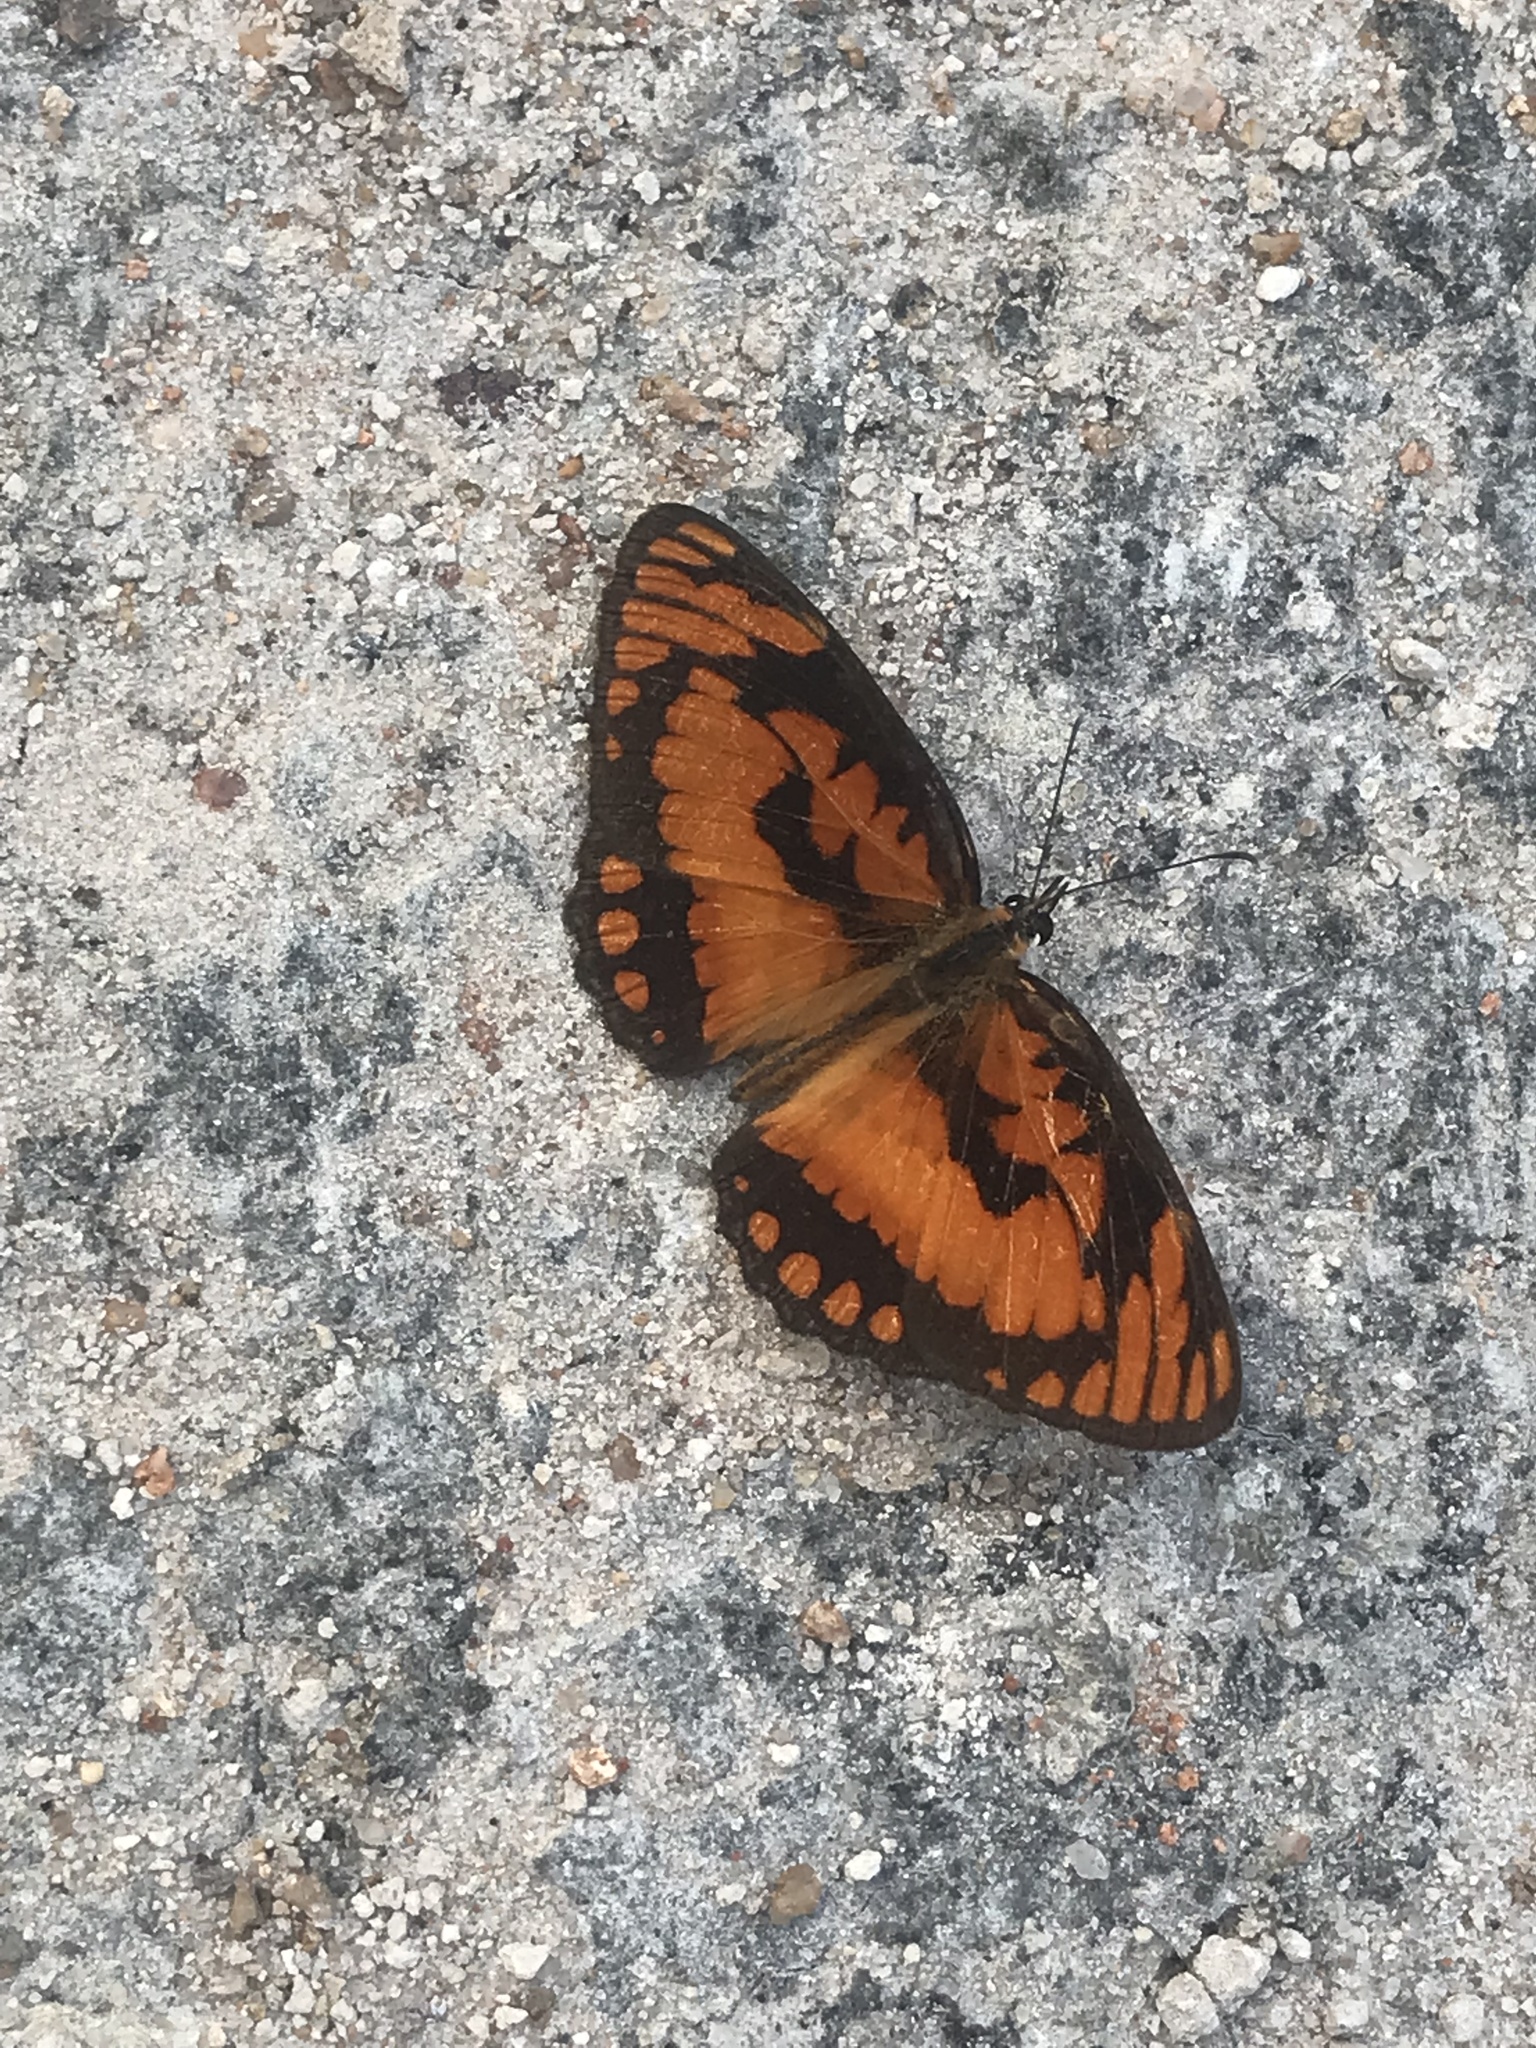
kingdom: Animalia
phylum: Arthropoda
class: Insecta
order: Lepidoptera
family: Nymphalidae
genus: Byblia
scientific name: Byblia acheloia
